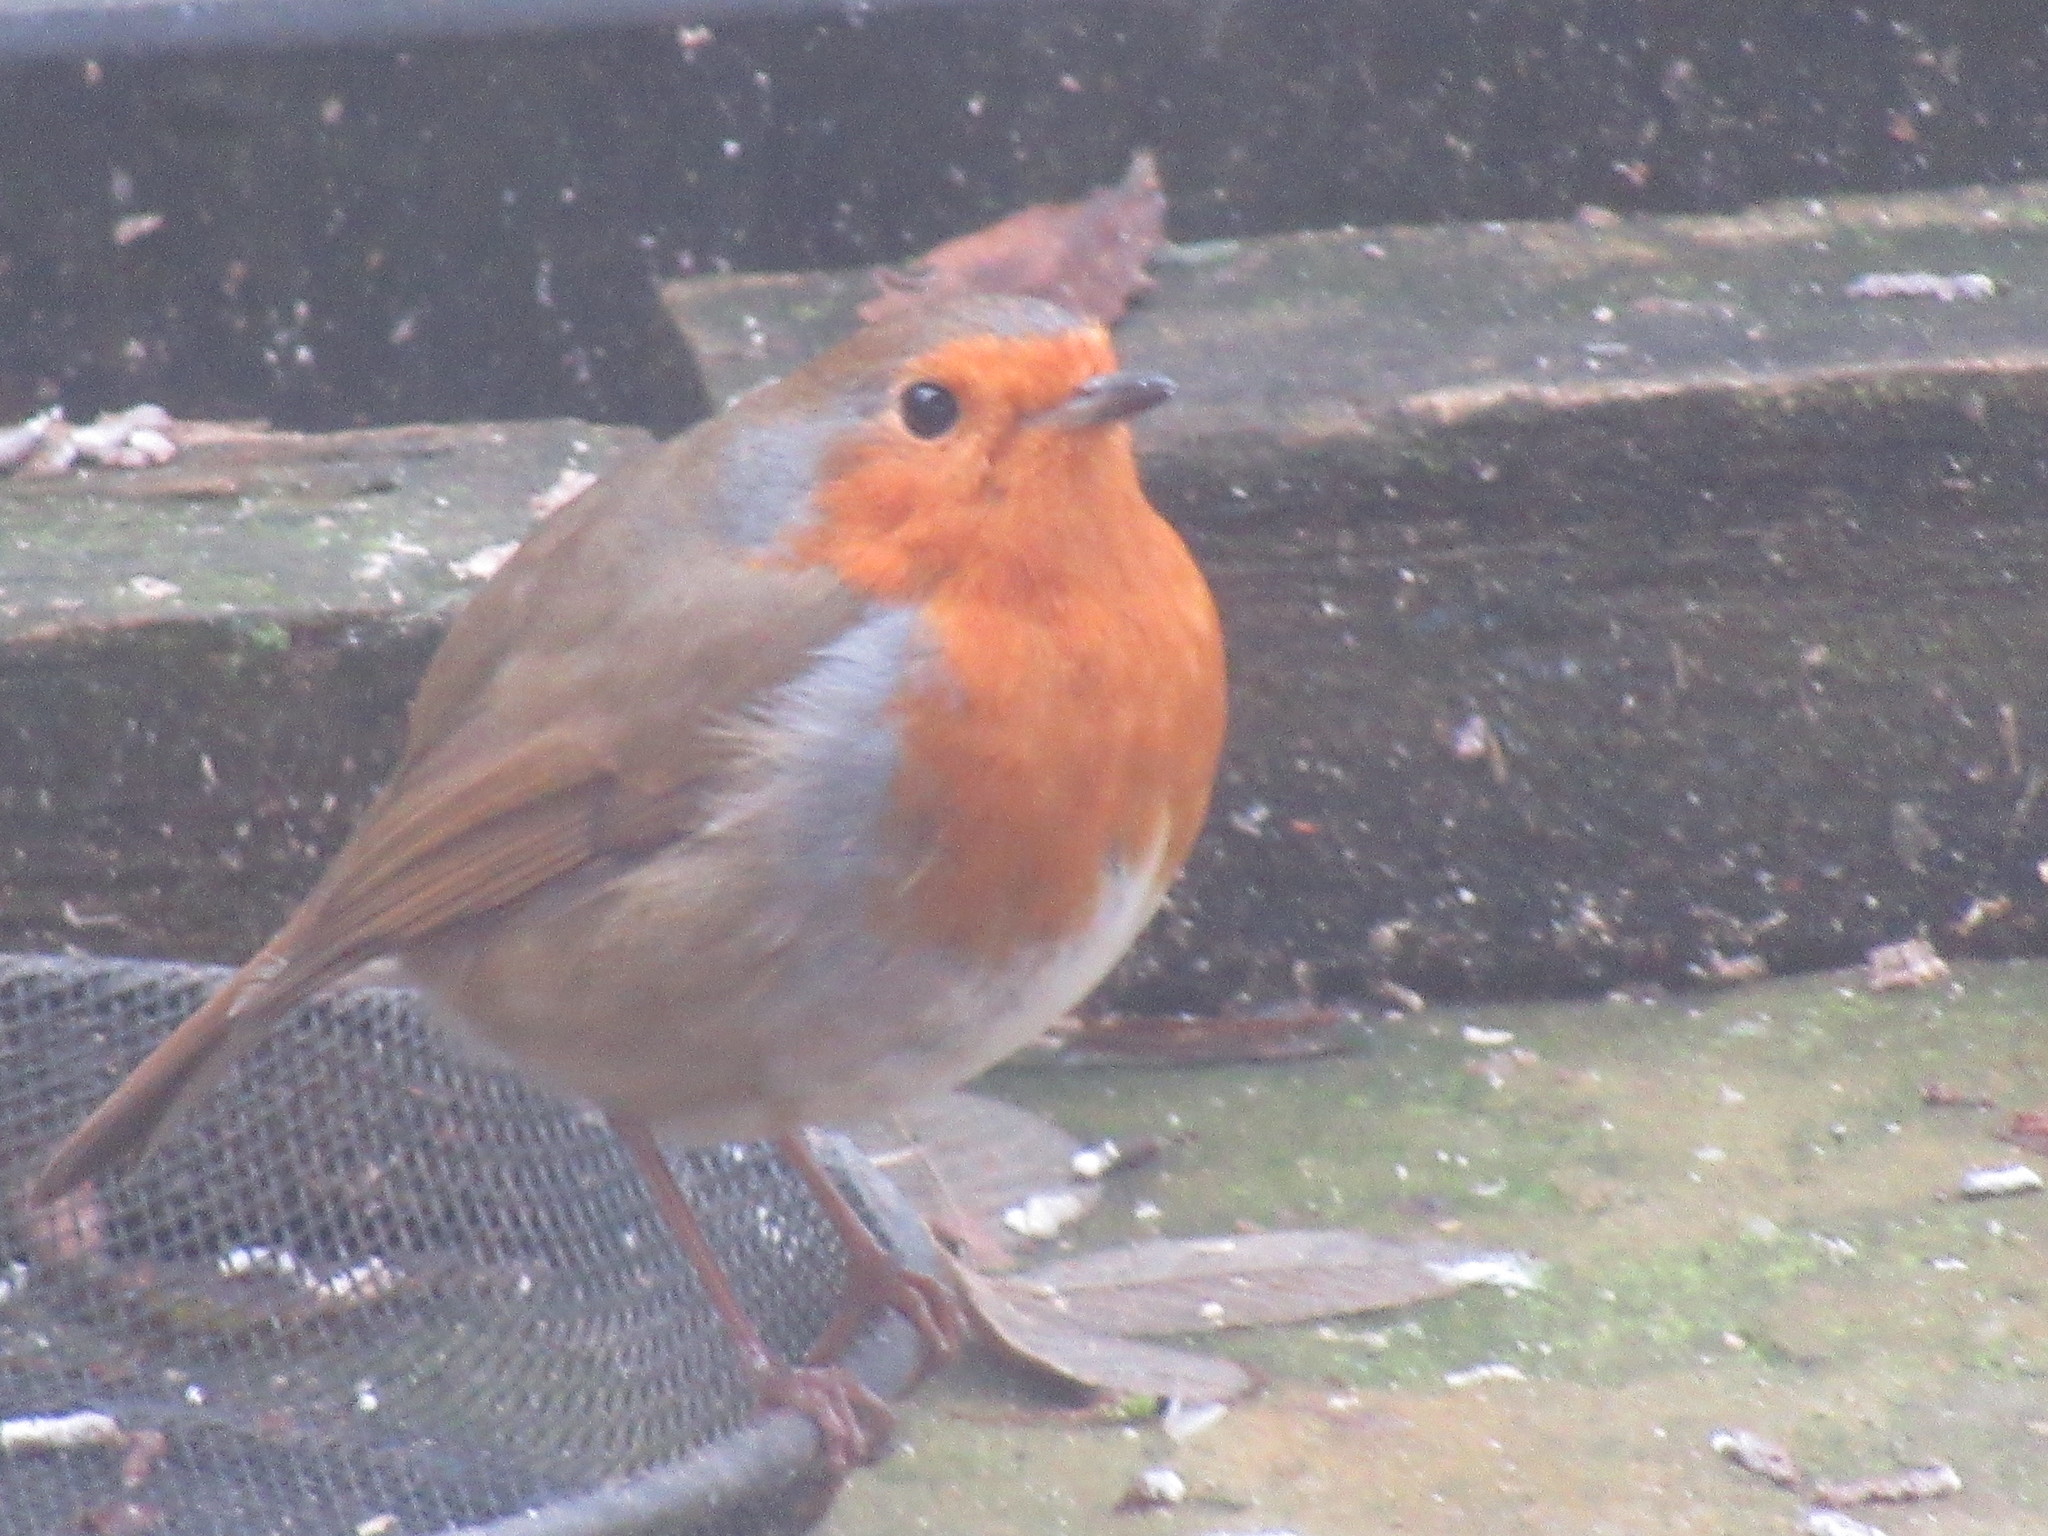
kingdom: Animalia
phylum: Chordata
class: Aves
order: Passeriformes
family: Muscicapidae
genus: Erithacus
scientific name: Erithacus rubecula
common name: European robin
